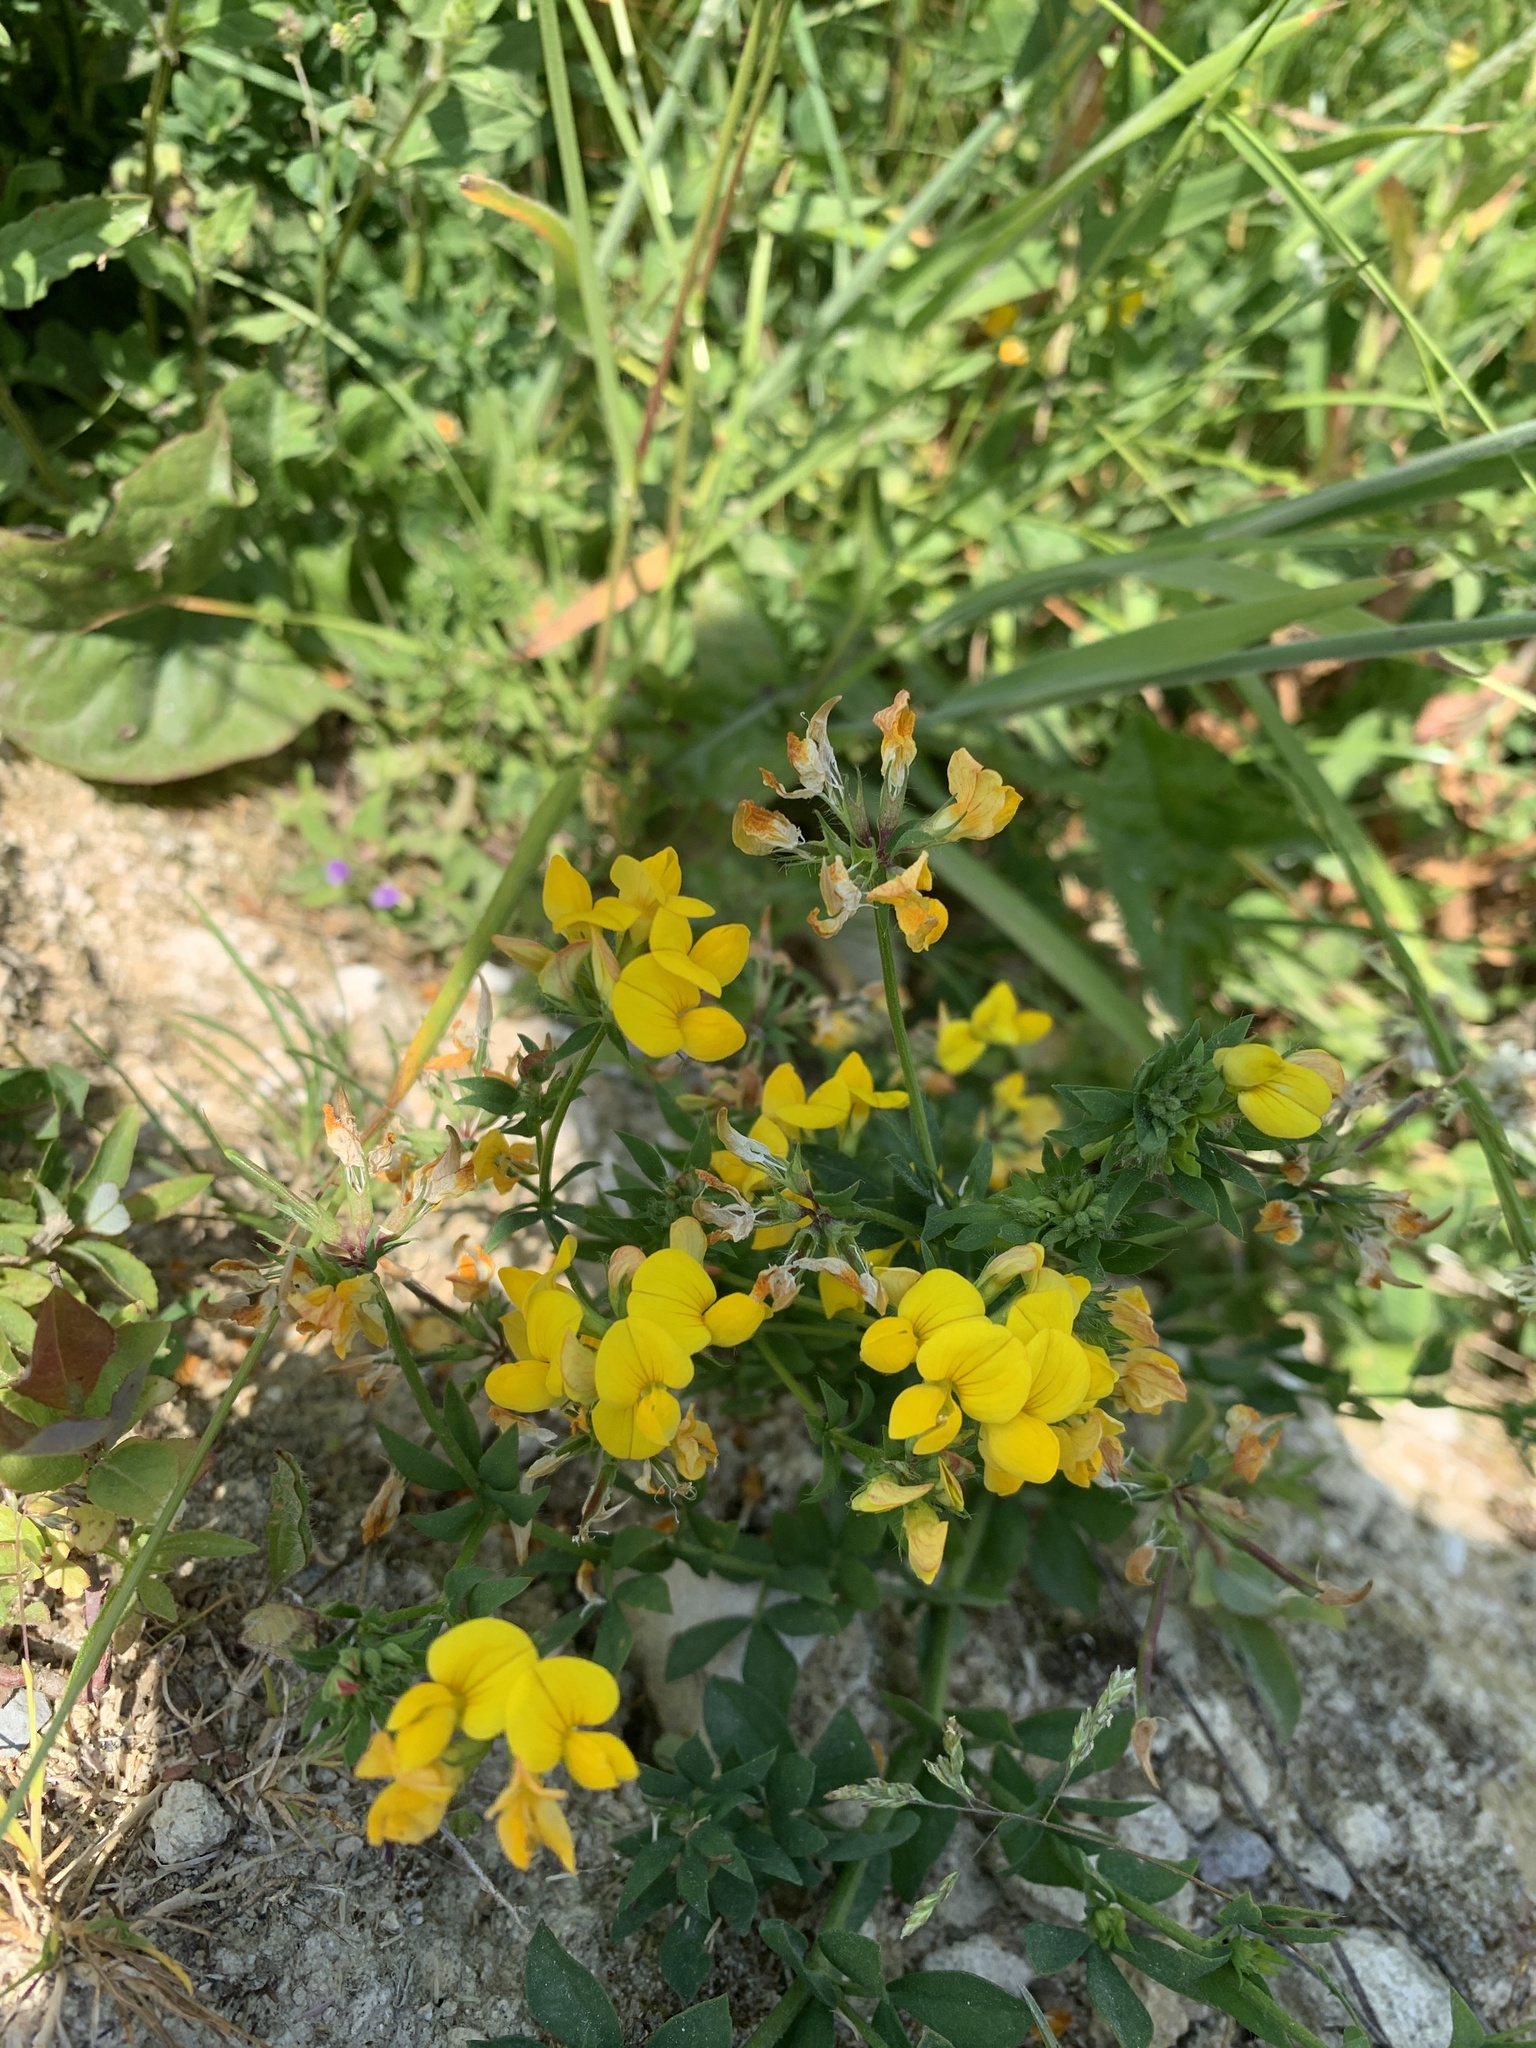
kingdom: Plantae
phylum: Tracheophyta
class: Magnoliopsida
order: Fabales
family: Fabaceae
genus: Lotus
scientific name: Lotus corniculatus
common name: Common bird's-foot-trefoil
